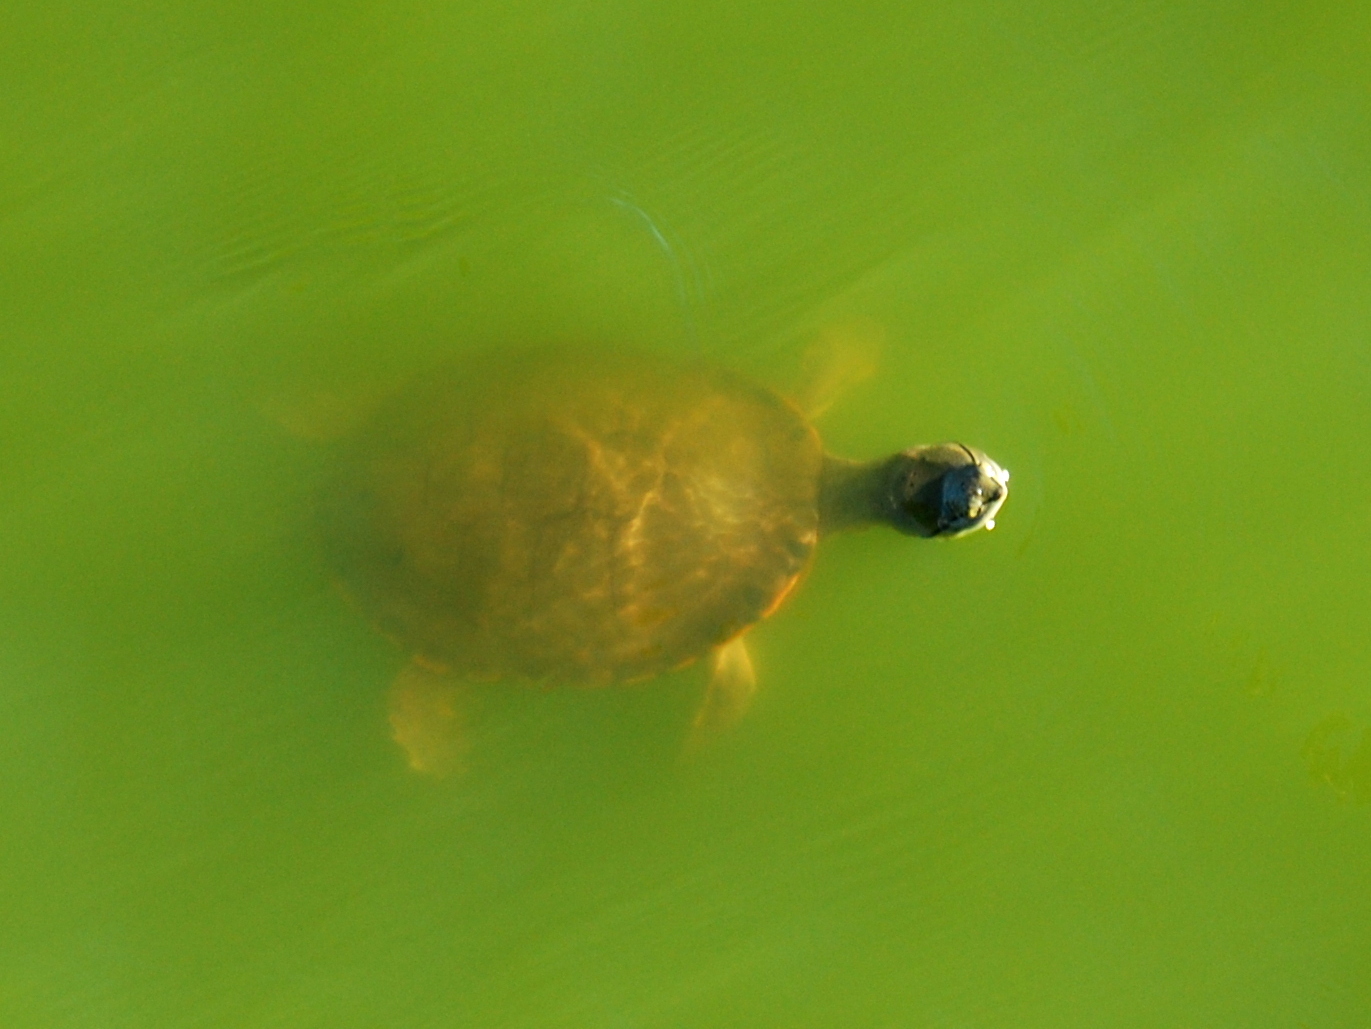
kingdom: Animalia
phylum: Chordata
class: Testudines
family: Chelidae
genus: Phrynops
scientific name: Phrynops hilarii
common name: Side-necked turtle of saint hillaire
